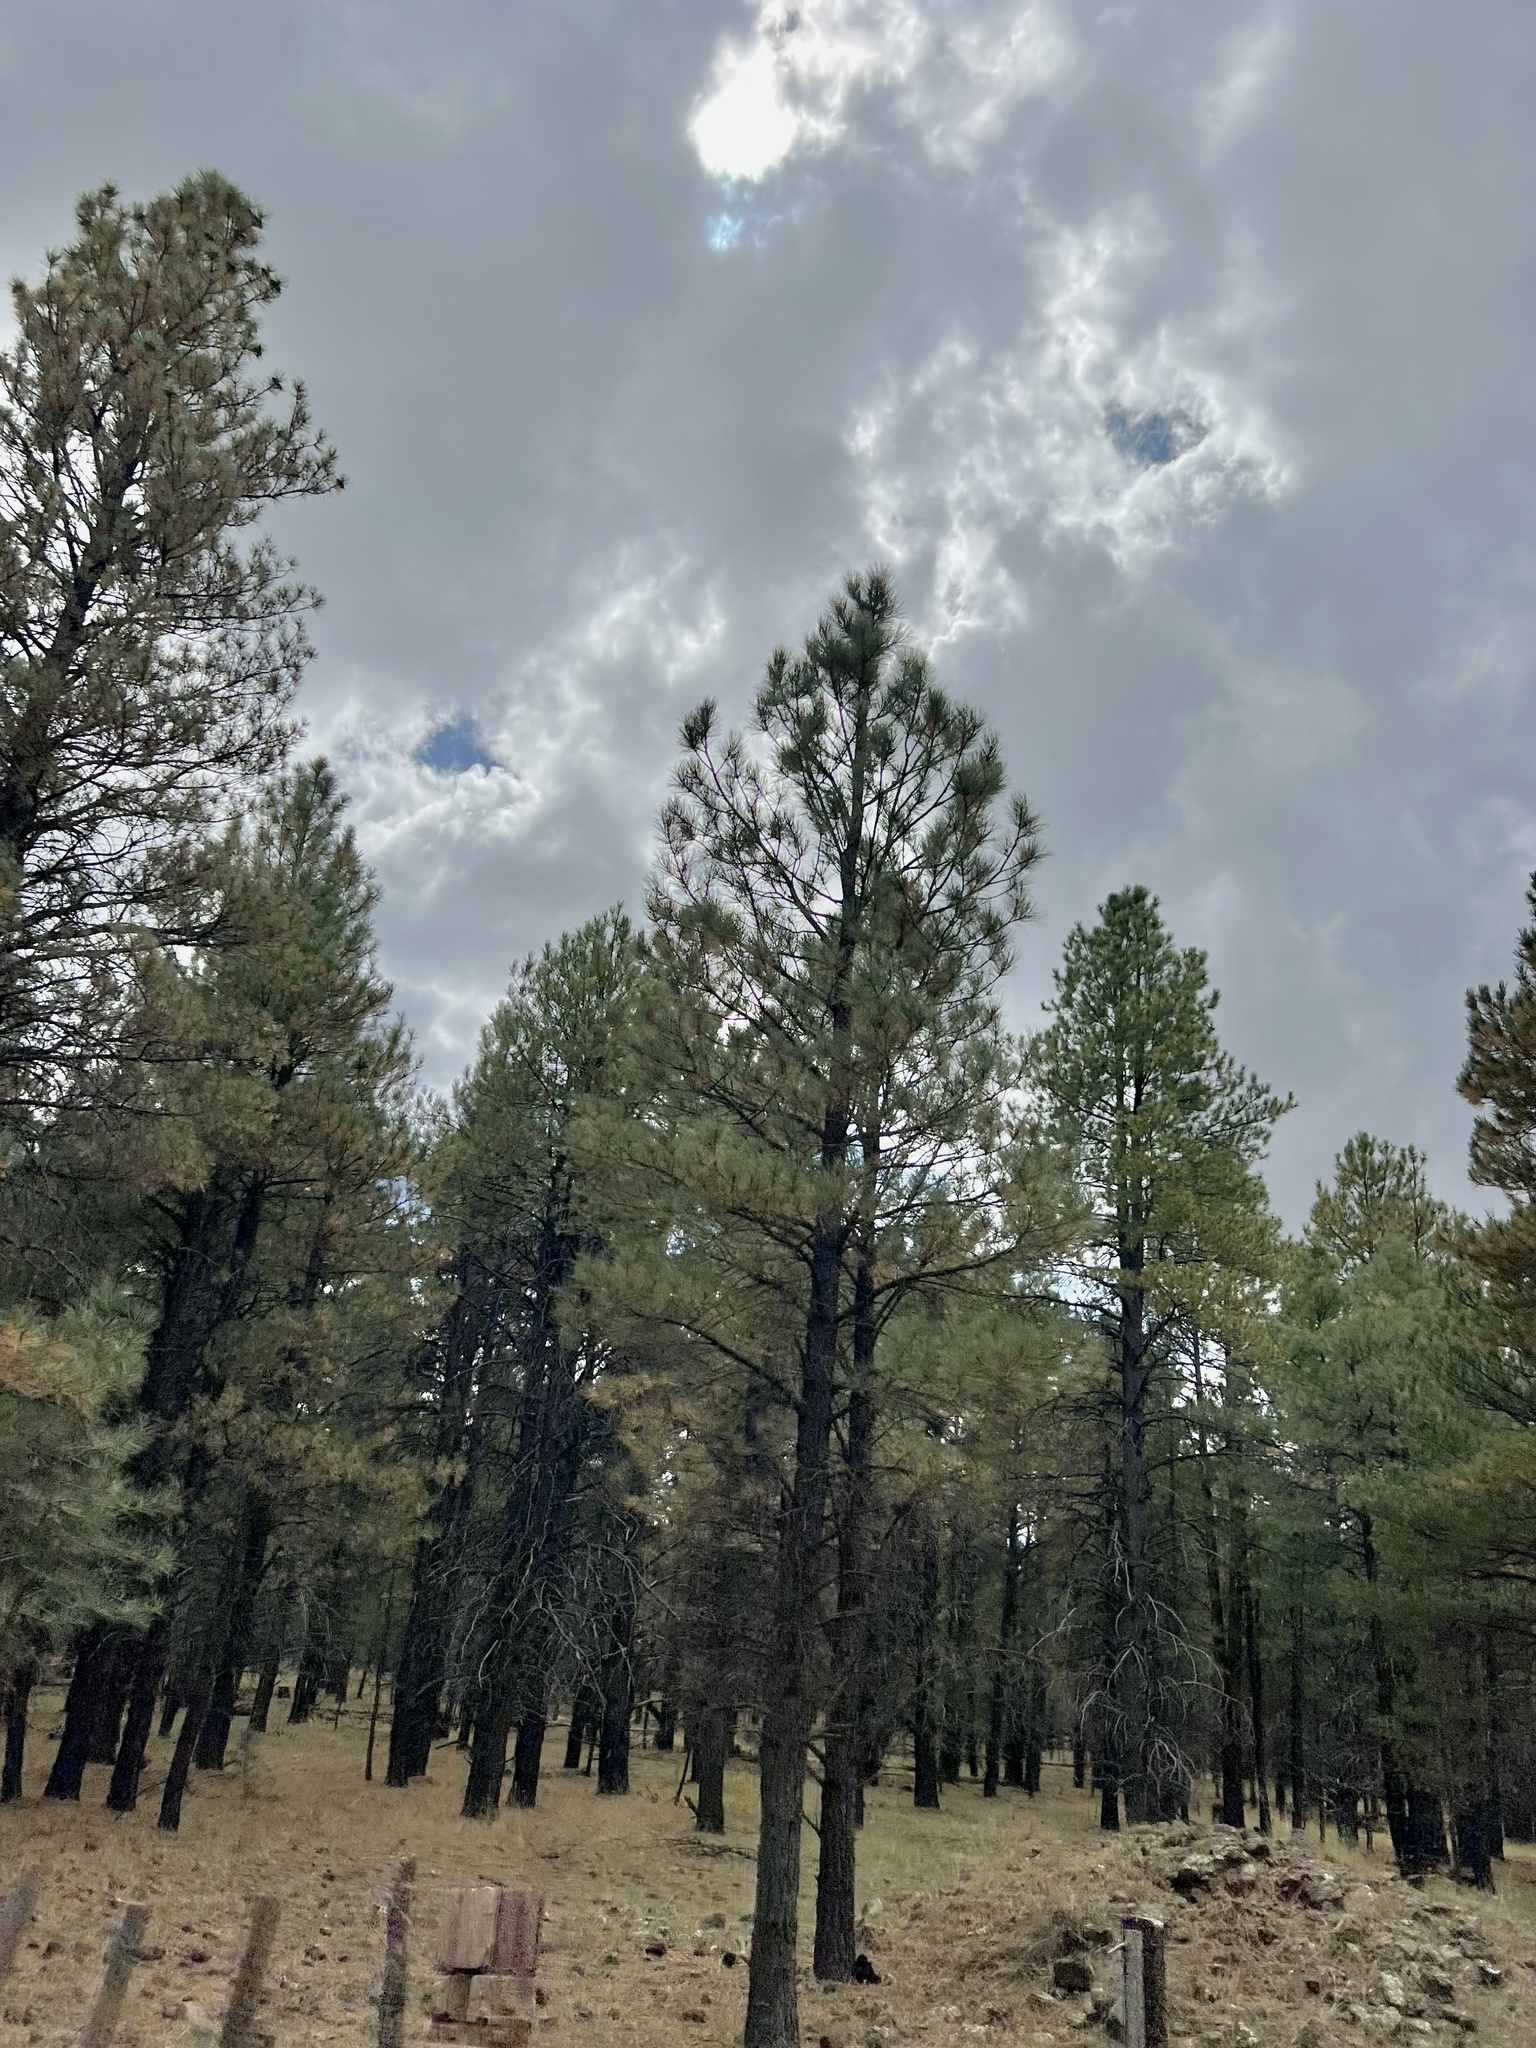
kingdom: Plantae
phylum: Tracheophyta
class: Pinopsida
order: Pinales
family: Pinaceae
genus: Pinus
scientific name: Pinus ponderosa
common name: Western yellow-pine
